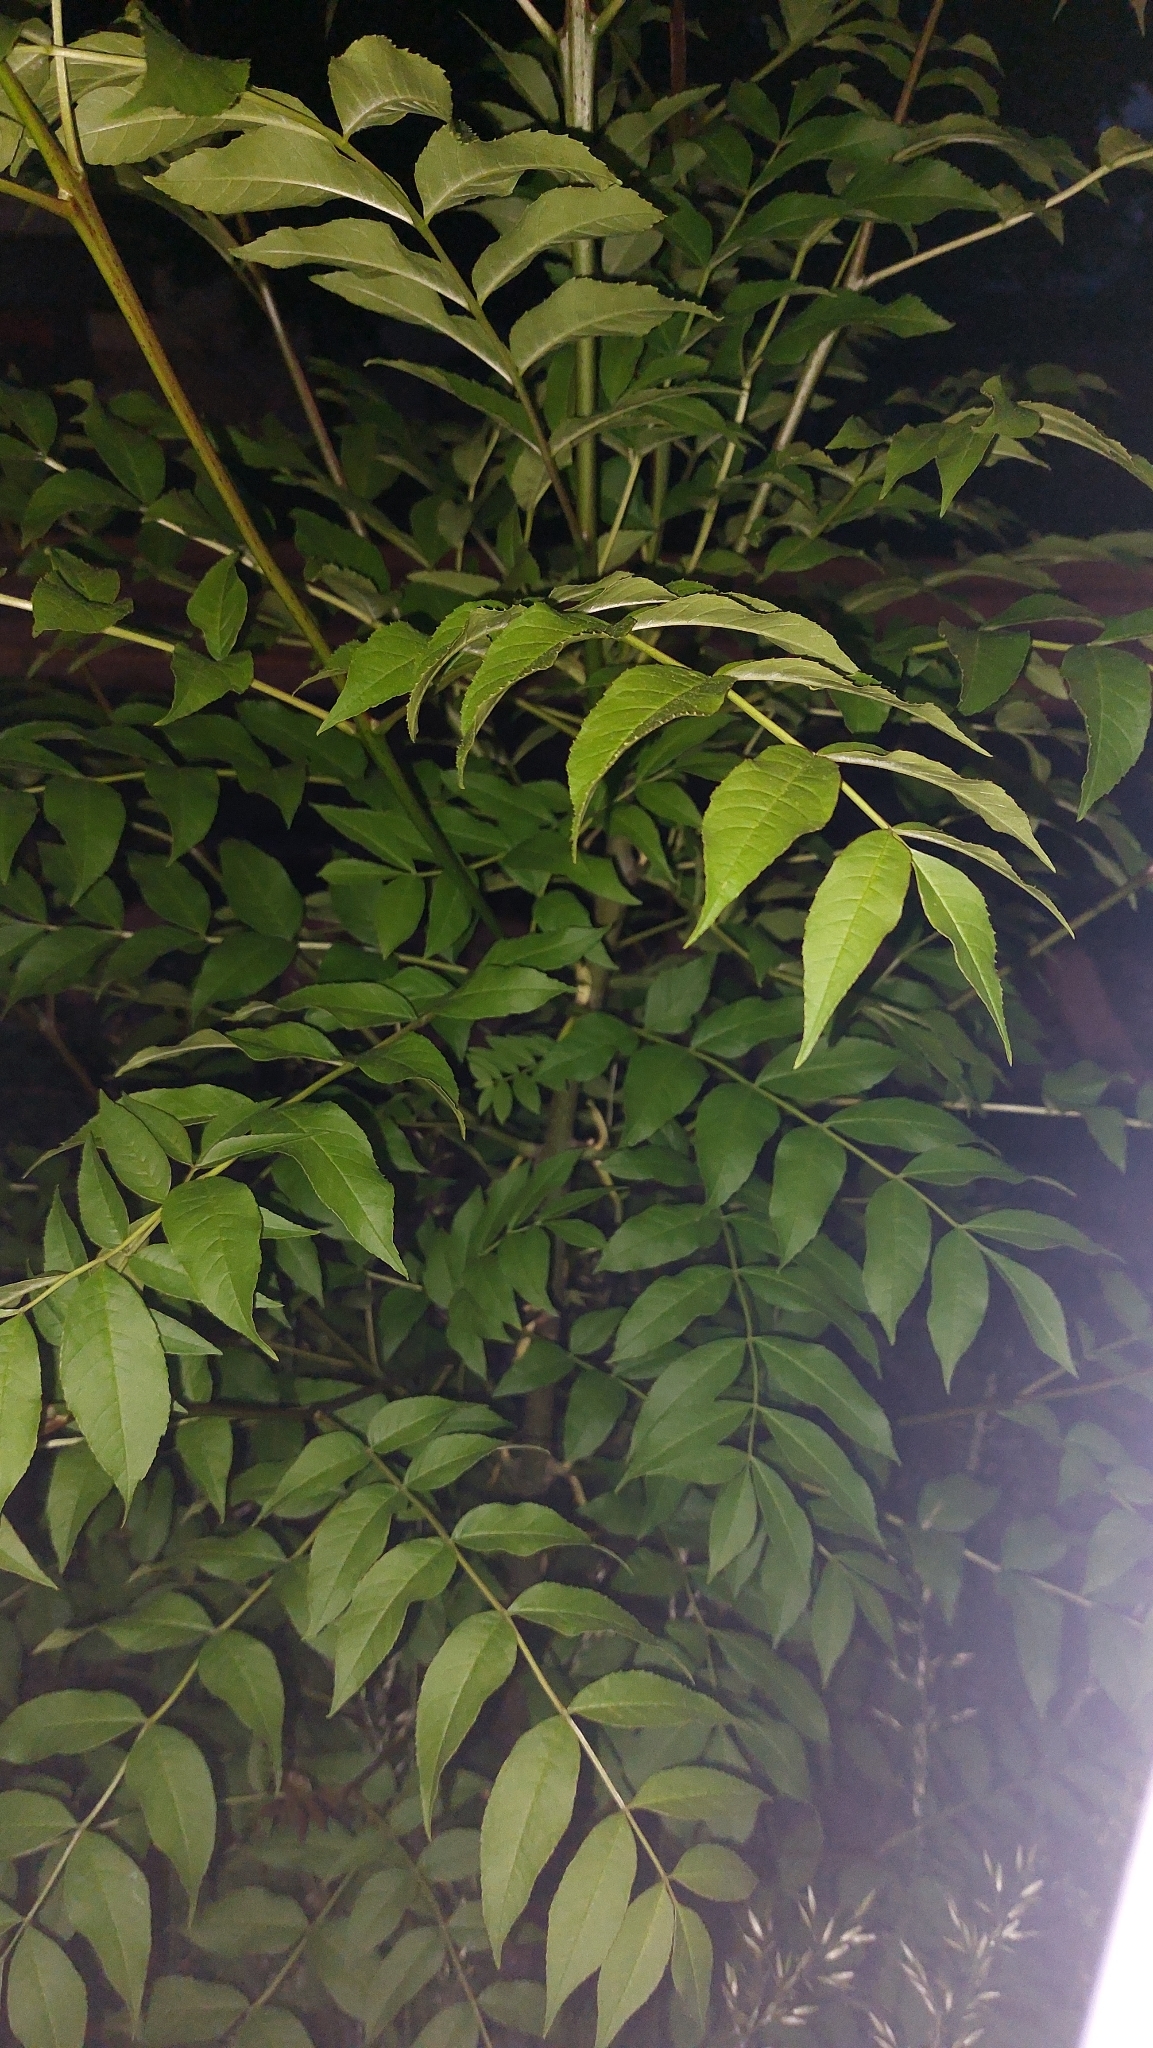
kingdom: Plantae
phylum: Tracheophyta
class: Magnoliopsida
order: Sapindales
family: Simaroubaceae
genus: Ailanthus
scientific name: Ailanthus altissima
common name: Tree-of-heaven
